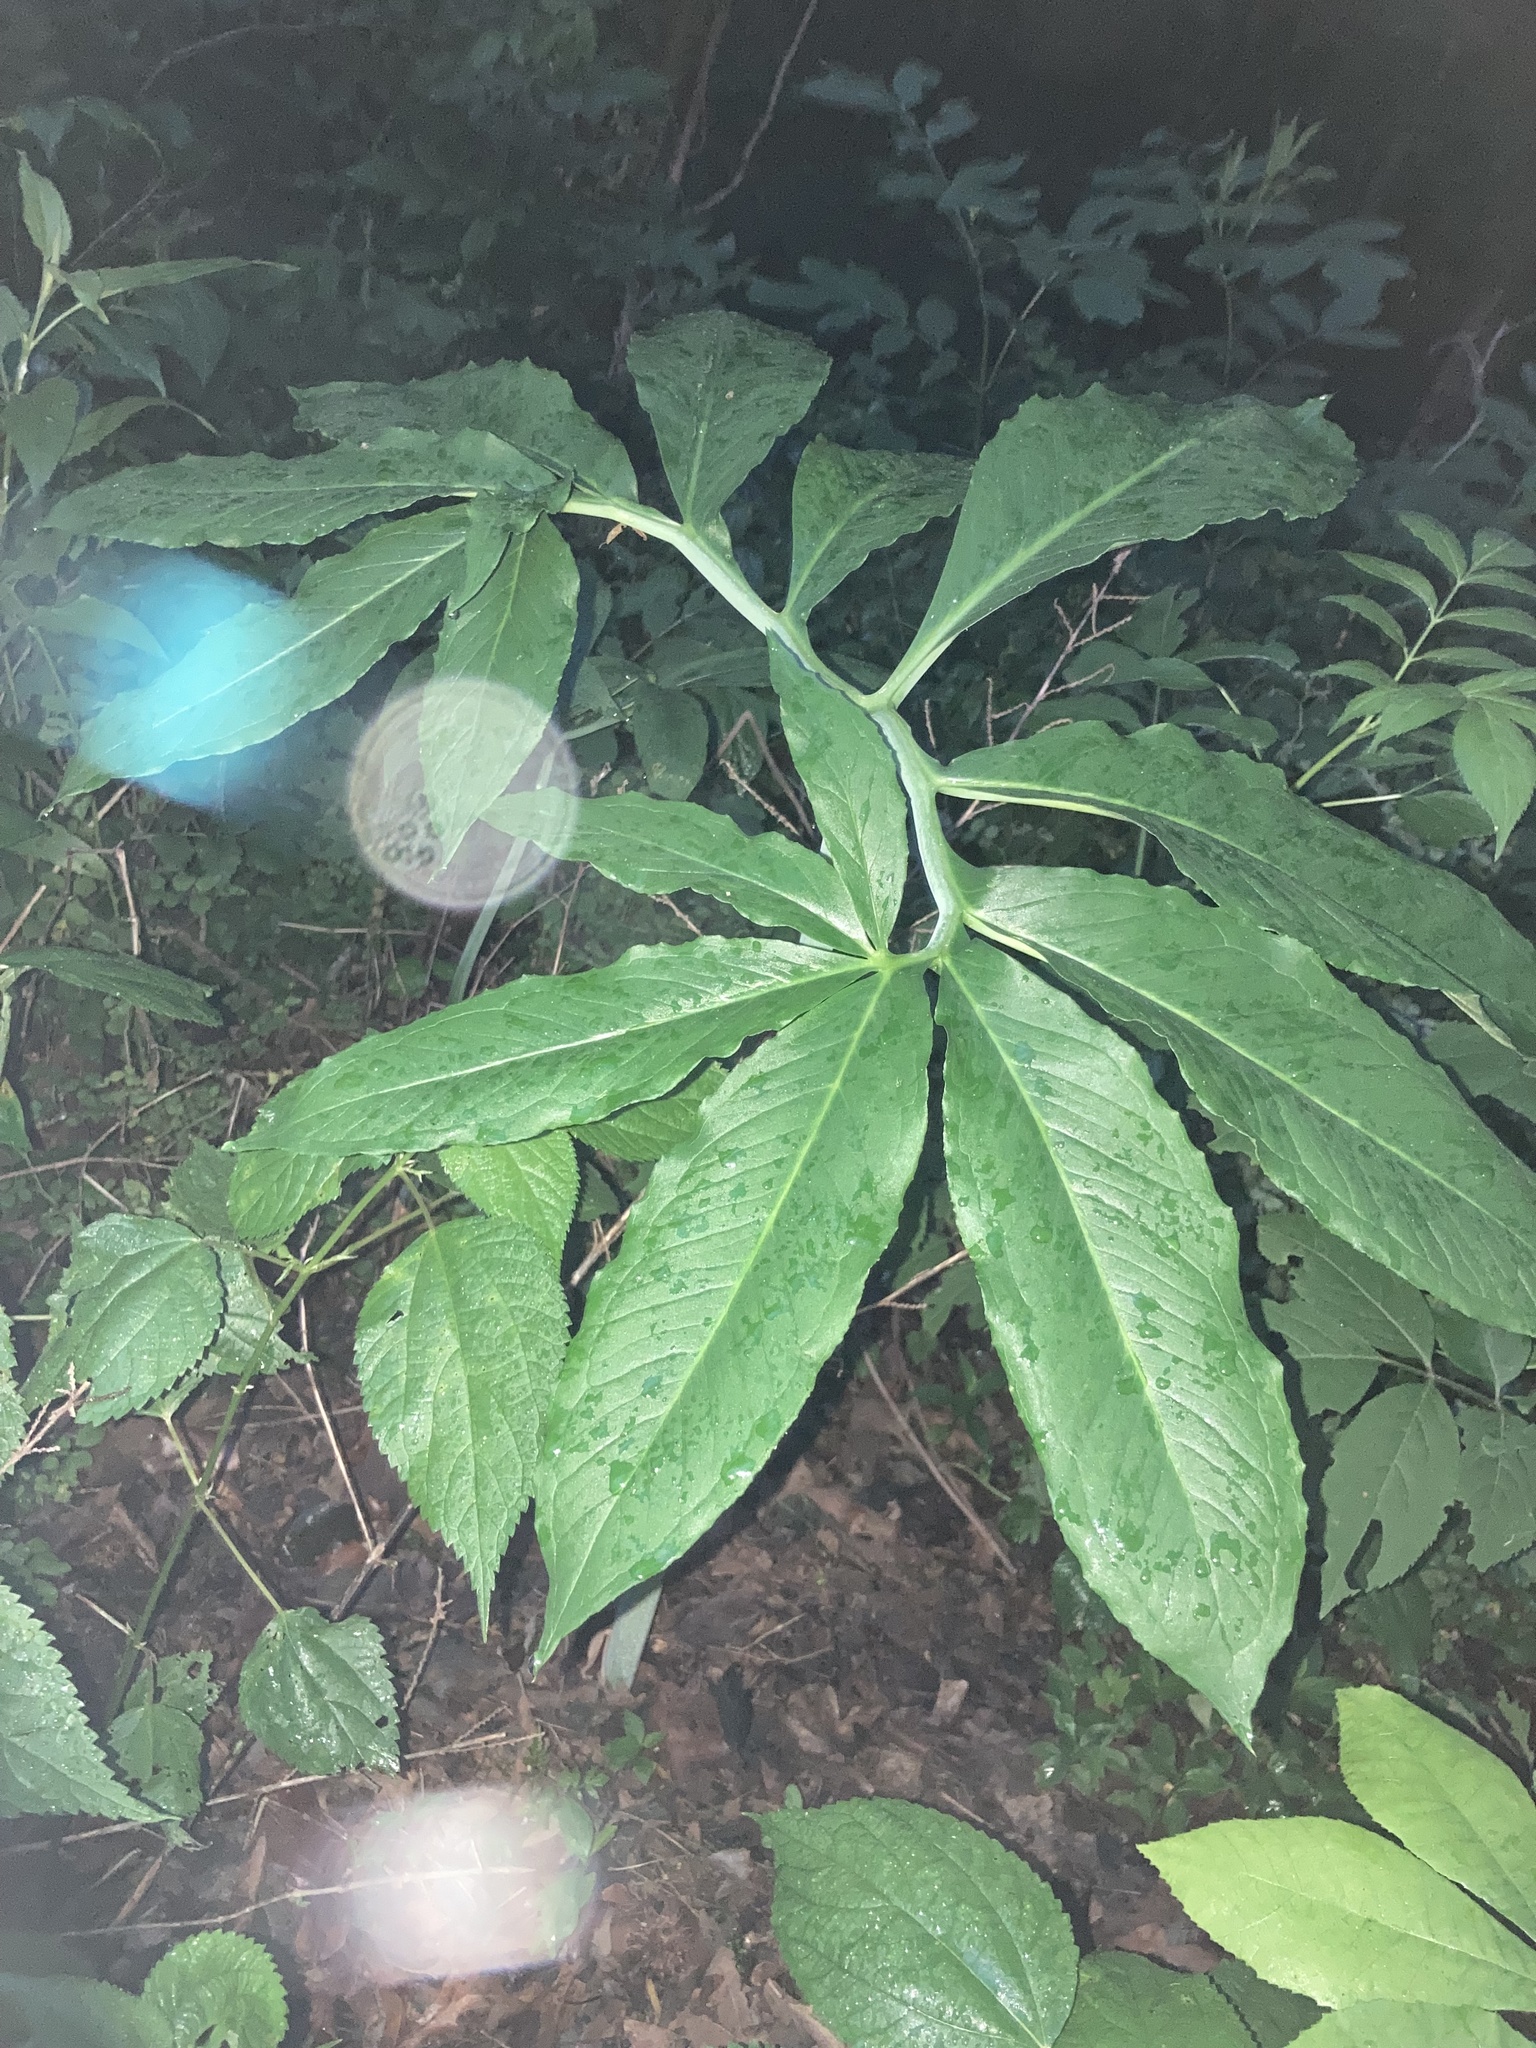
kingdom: Plantae
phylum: Tracheophyta
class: Liliopsida
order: Alismatales
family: Araceae
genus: Arisaema
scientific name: Arisaema dracontium
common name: Dragon-arum
